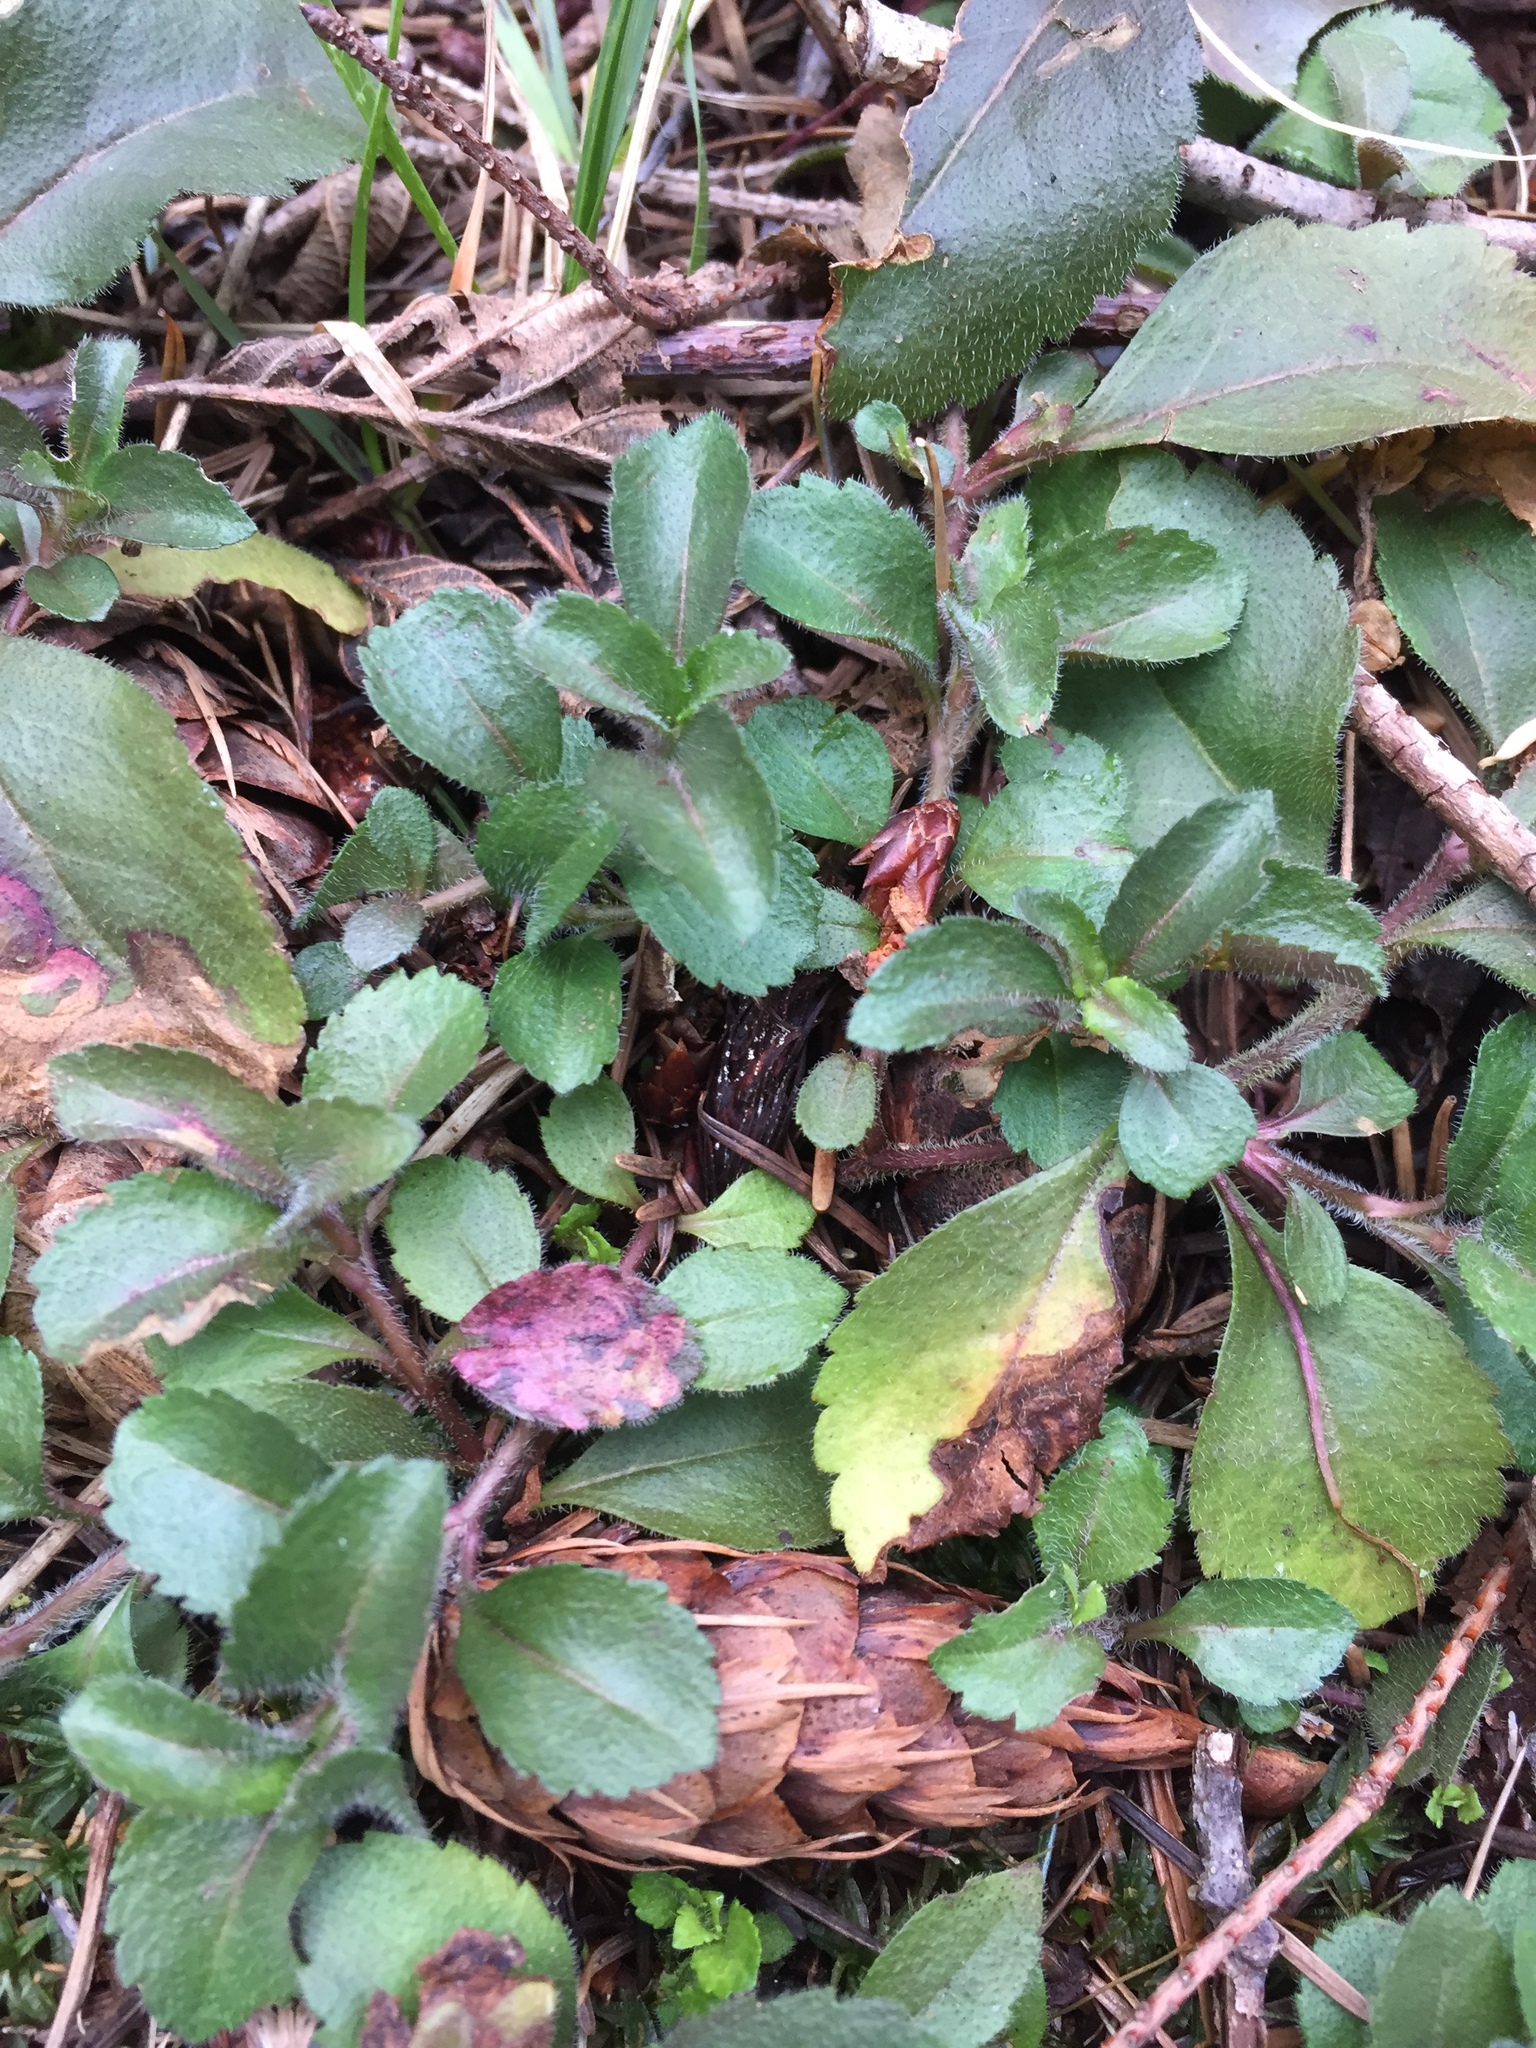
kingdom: Plantae
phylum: Tracheophyta
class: Magnoliopsida
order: Lamiales
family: Plantaginaceae
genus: Veronica
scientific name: Veronica officinalis
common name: Common speedwell
